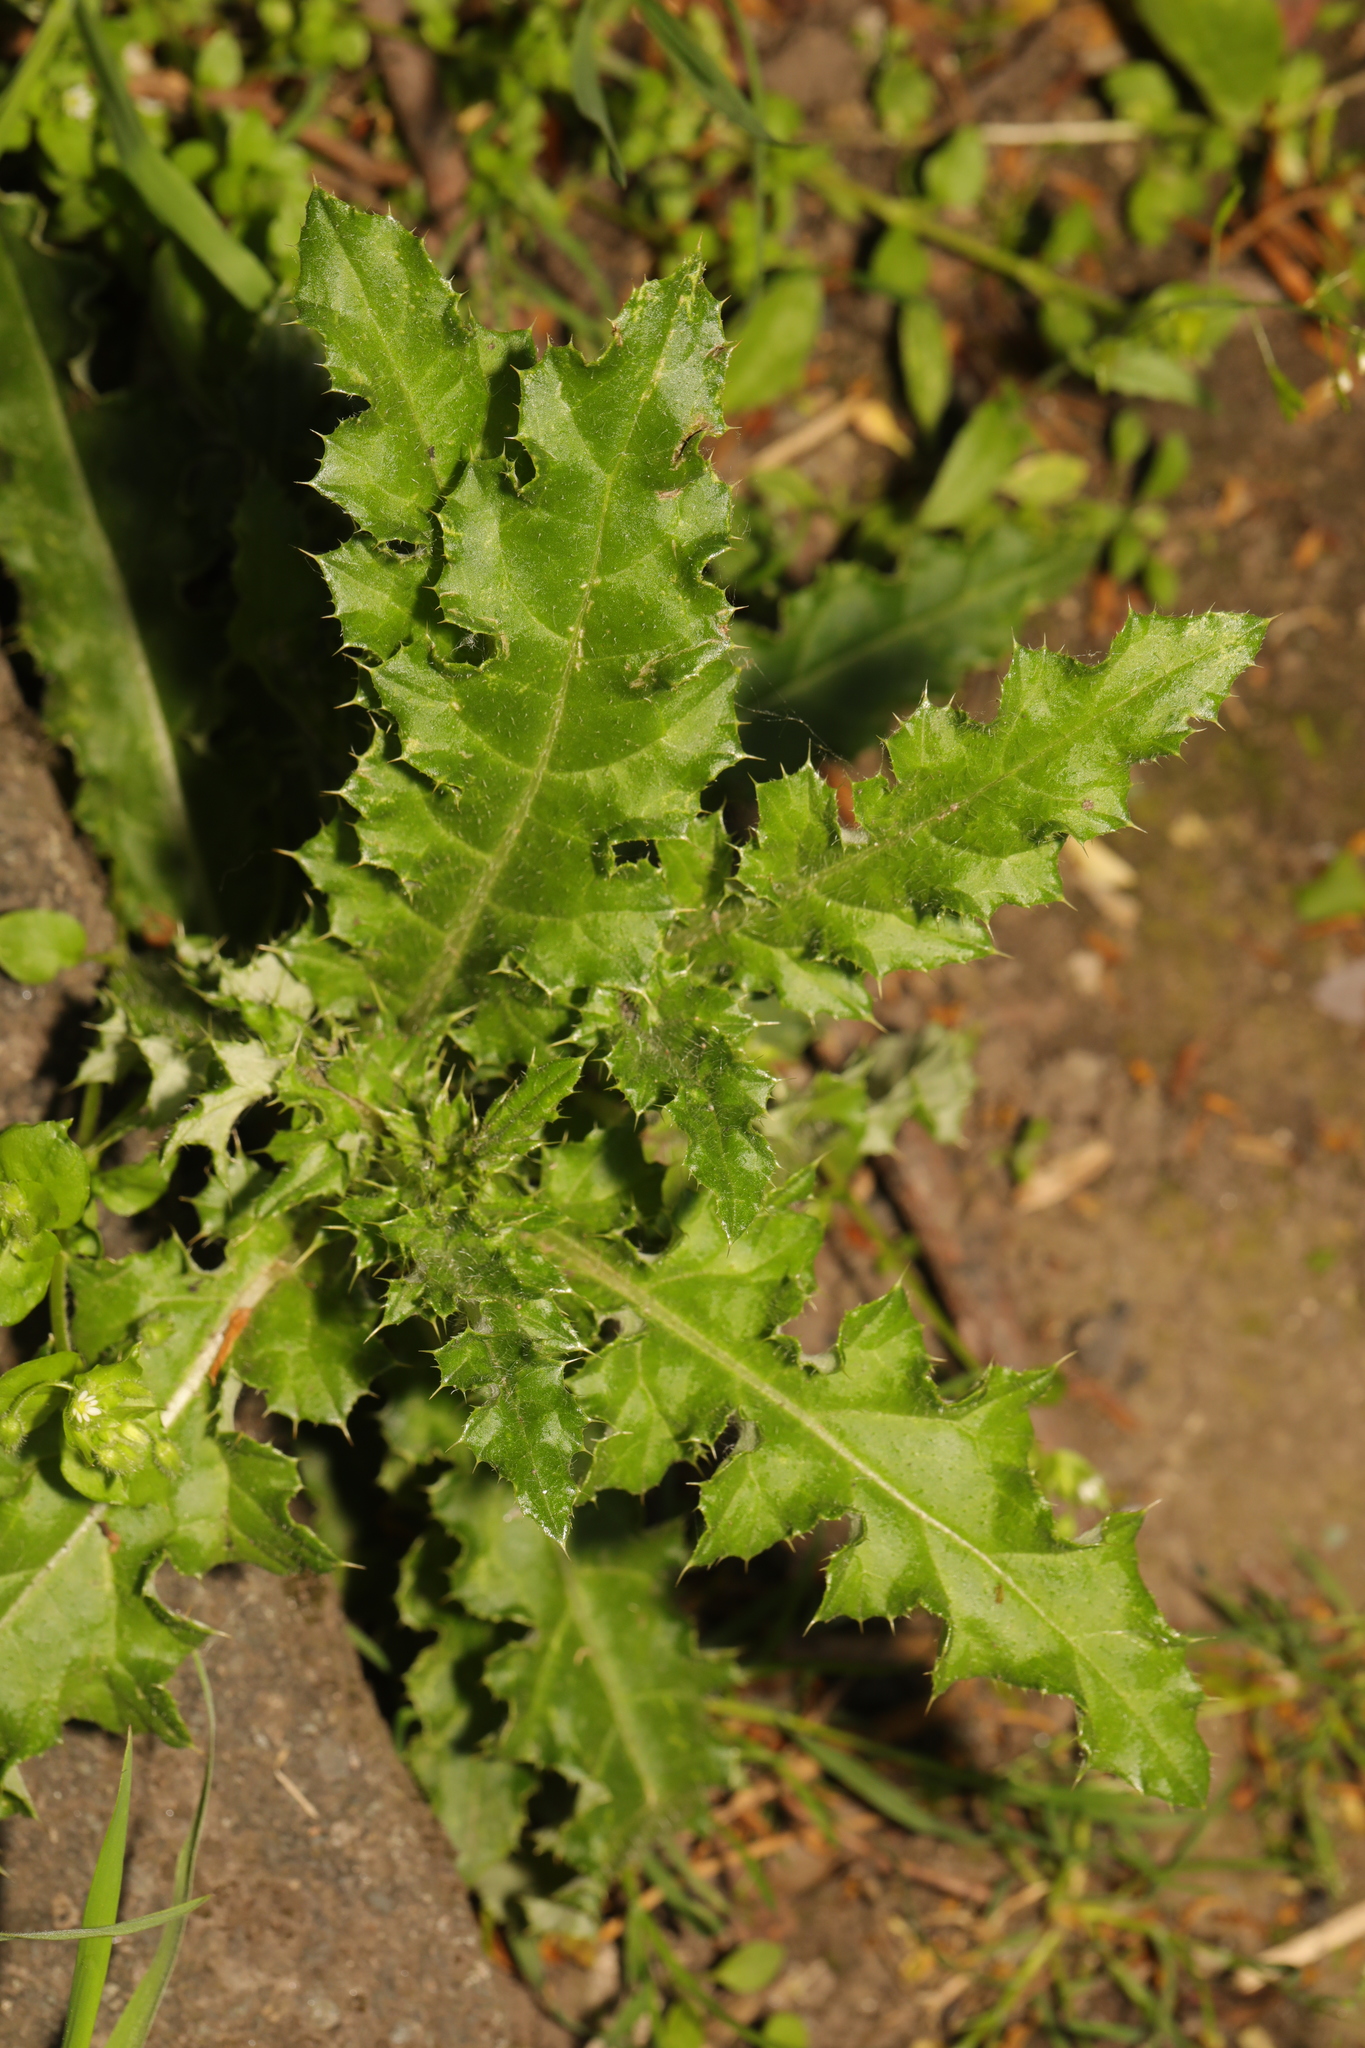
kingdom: Plantae
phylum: Tracheophyta
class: Magnoliopsida
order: Asterales
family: Asteraceae
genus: Cirsium
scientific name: Cirsium arvense
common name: Creeping thistle
